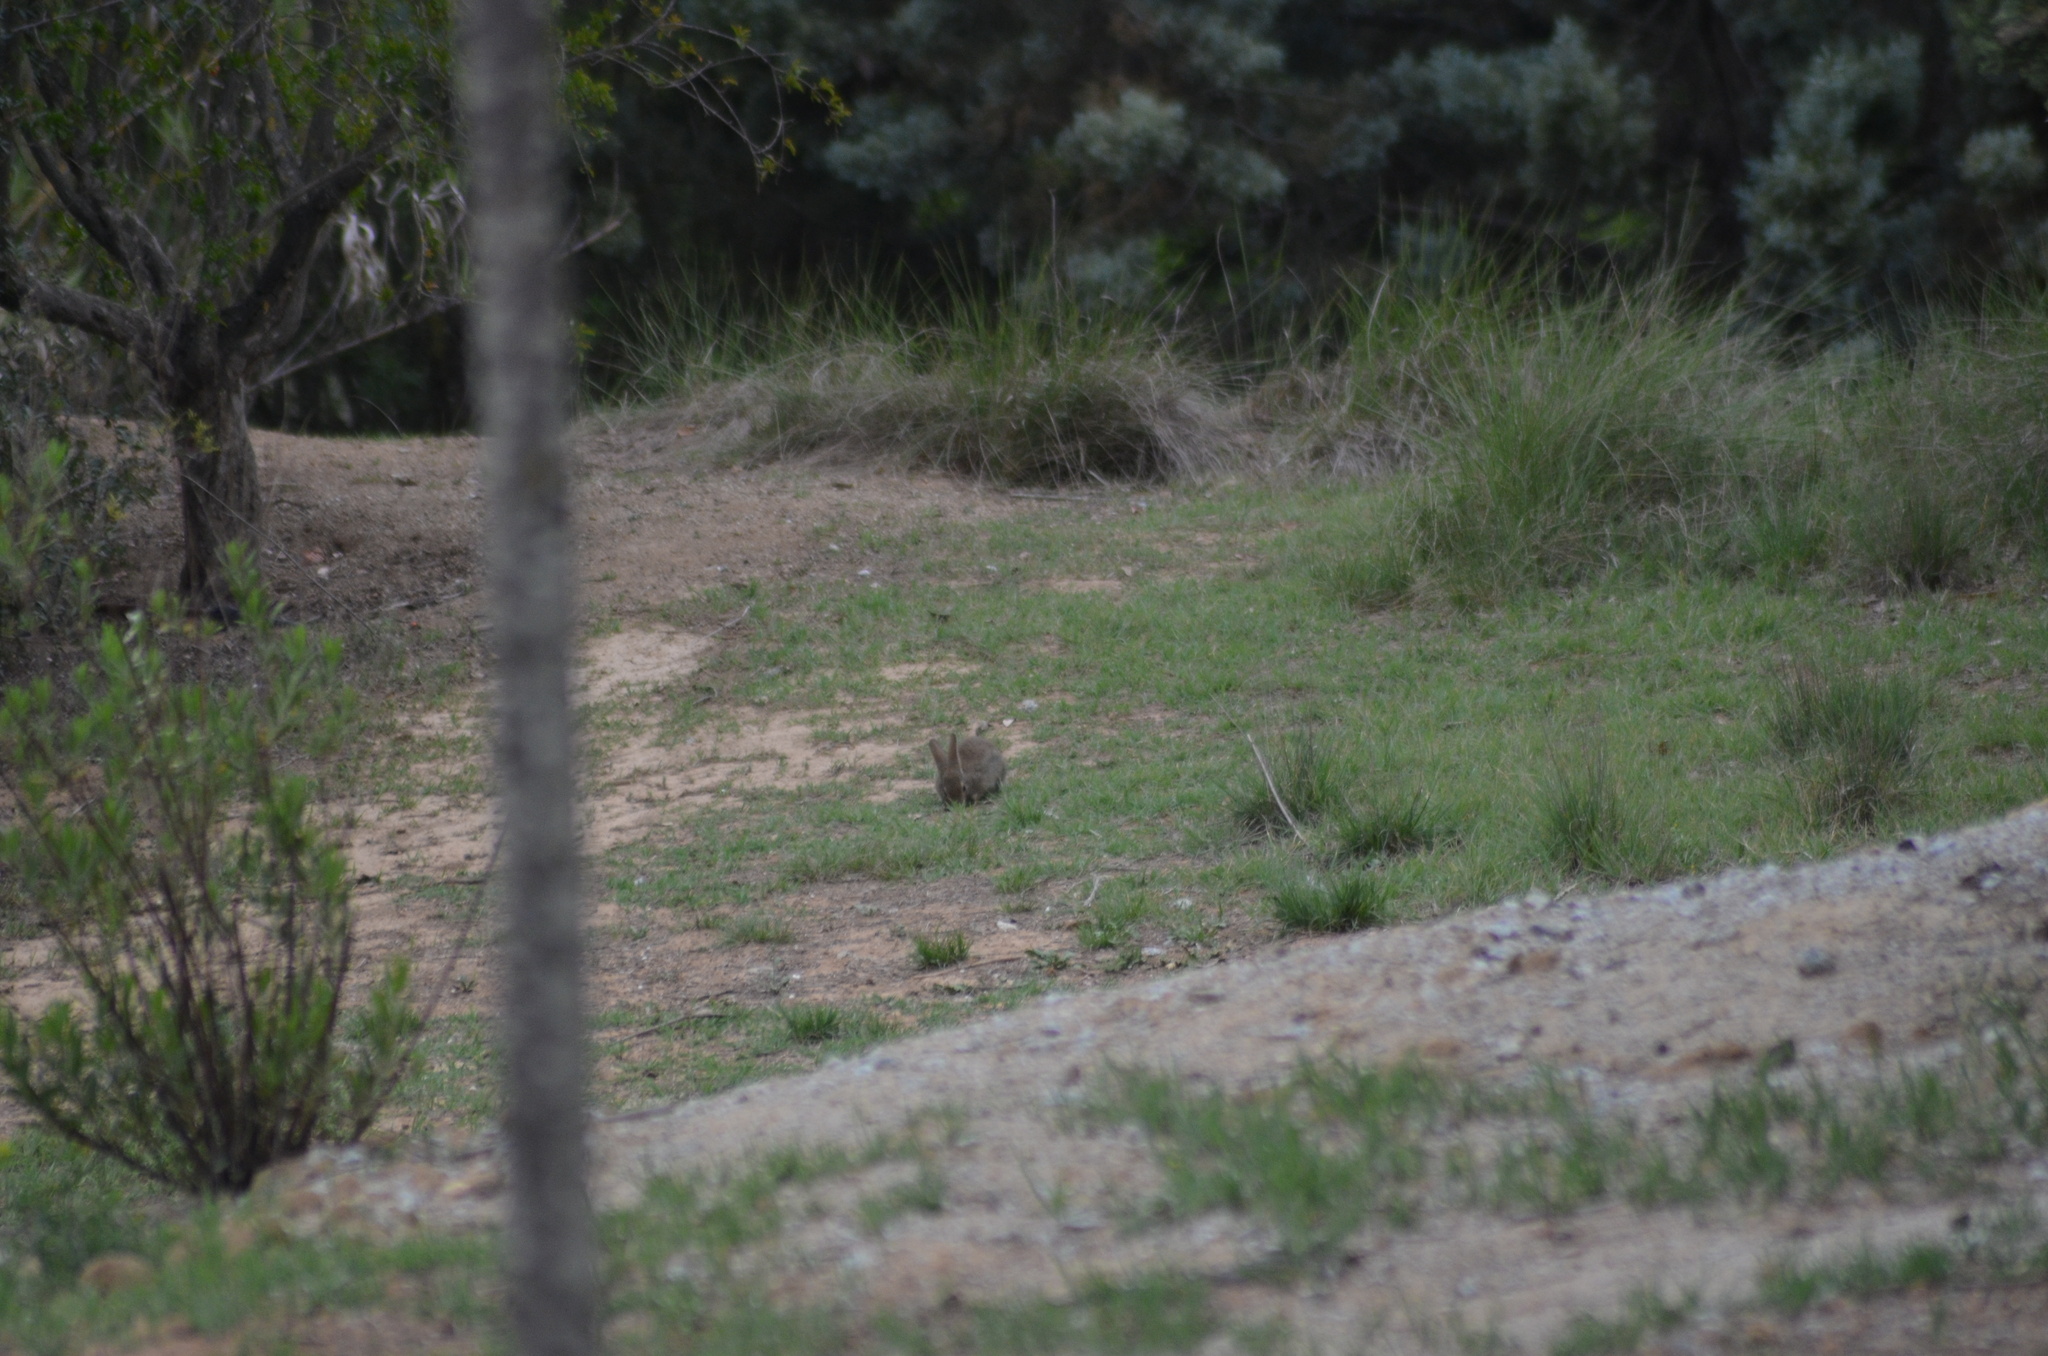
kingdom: Animalia
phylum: Chordata
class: Mammalia
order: Lagomorpha
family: Leporidae
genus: Oryctolagus
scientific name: Oryctolagus cuniculus
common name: European rabbit
